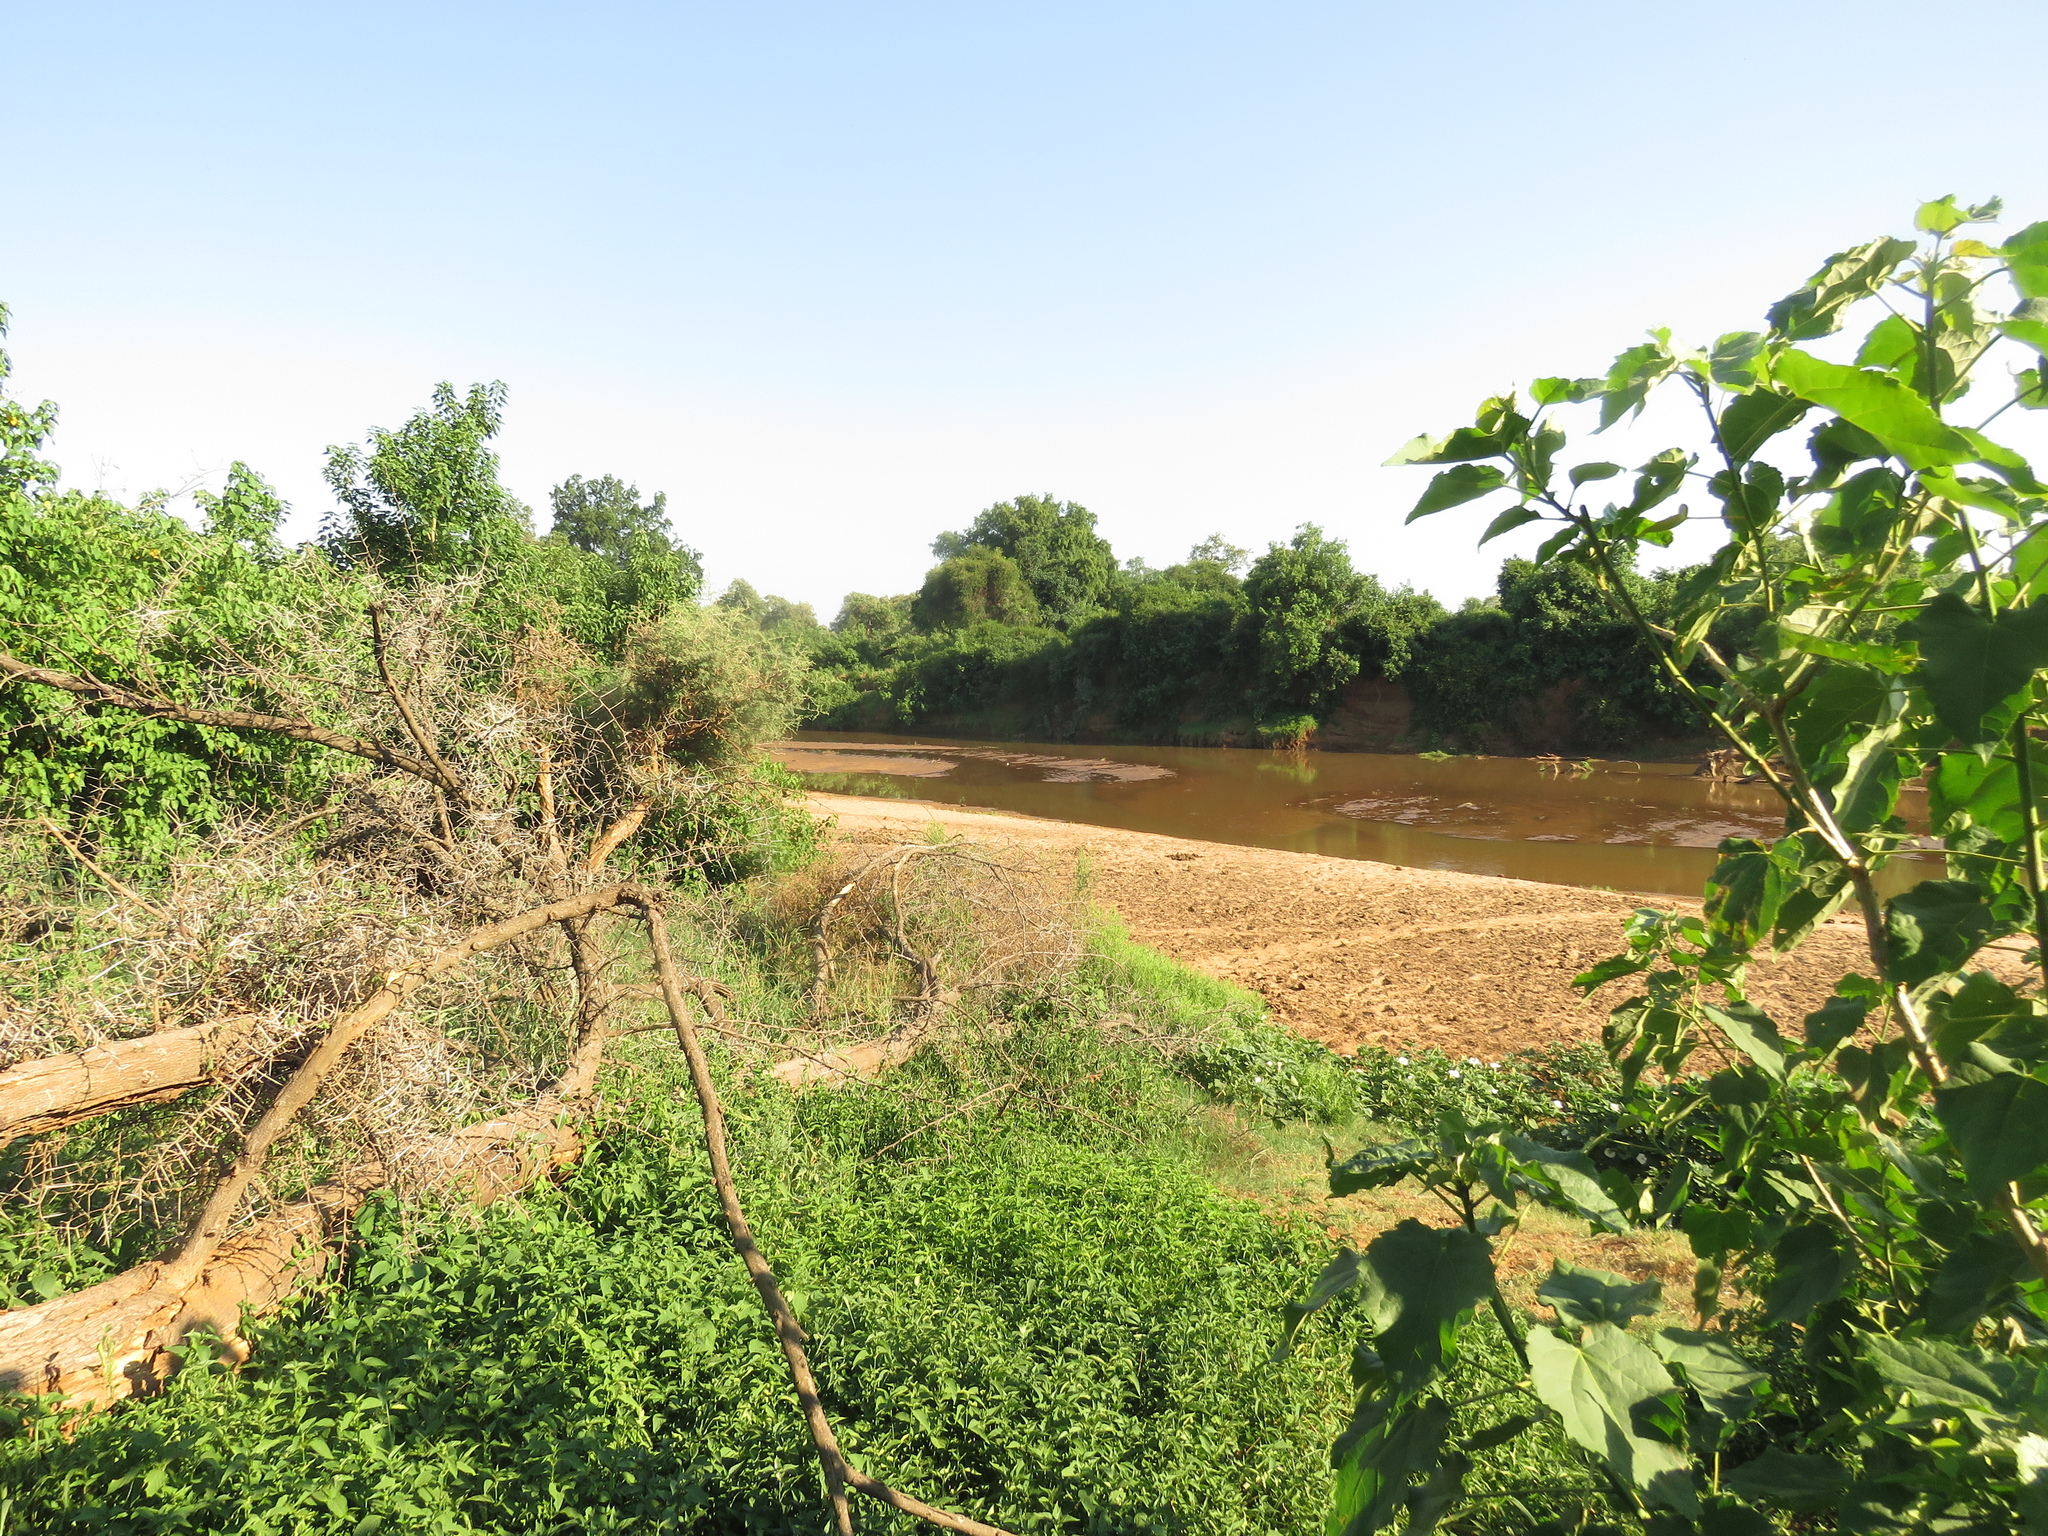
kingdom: Plantae
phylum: Tracheophyta
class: Magnoliopsida
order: Malpighiales
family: Euphorbiaceae
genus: Croton
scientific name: Croton megalobotrys
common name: Large fever berry
